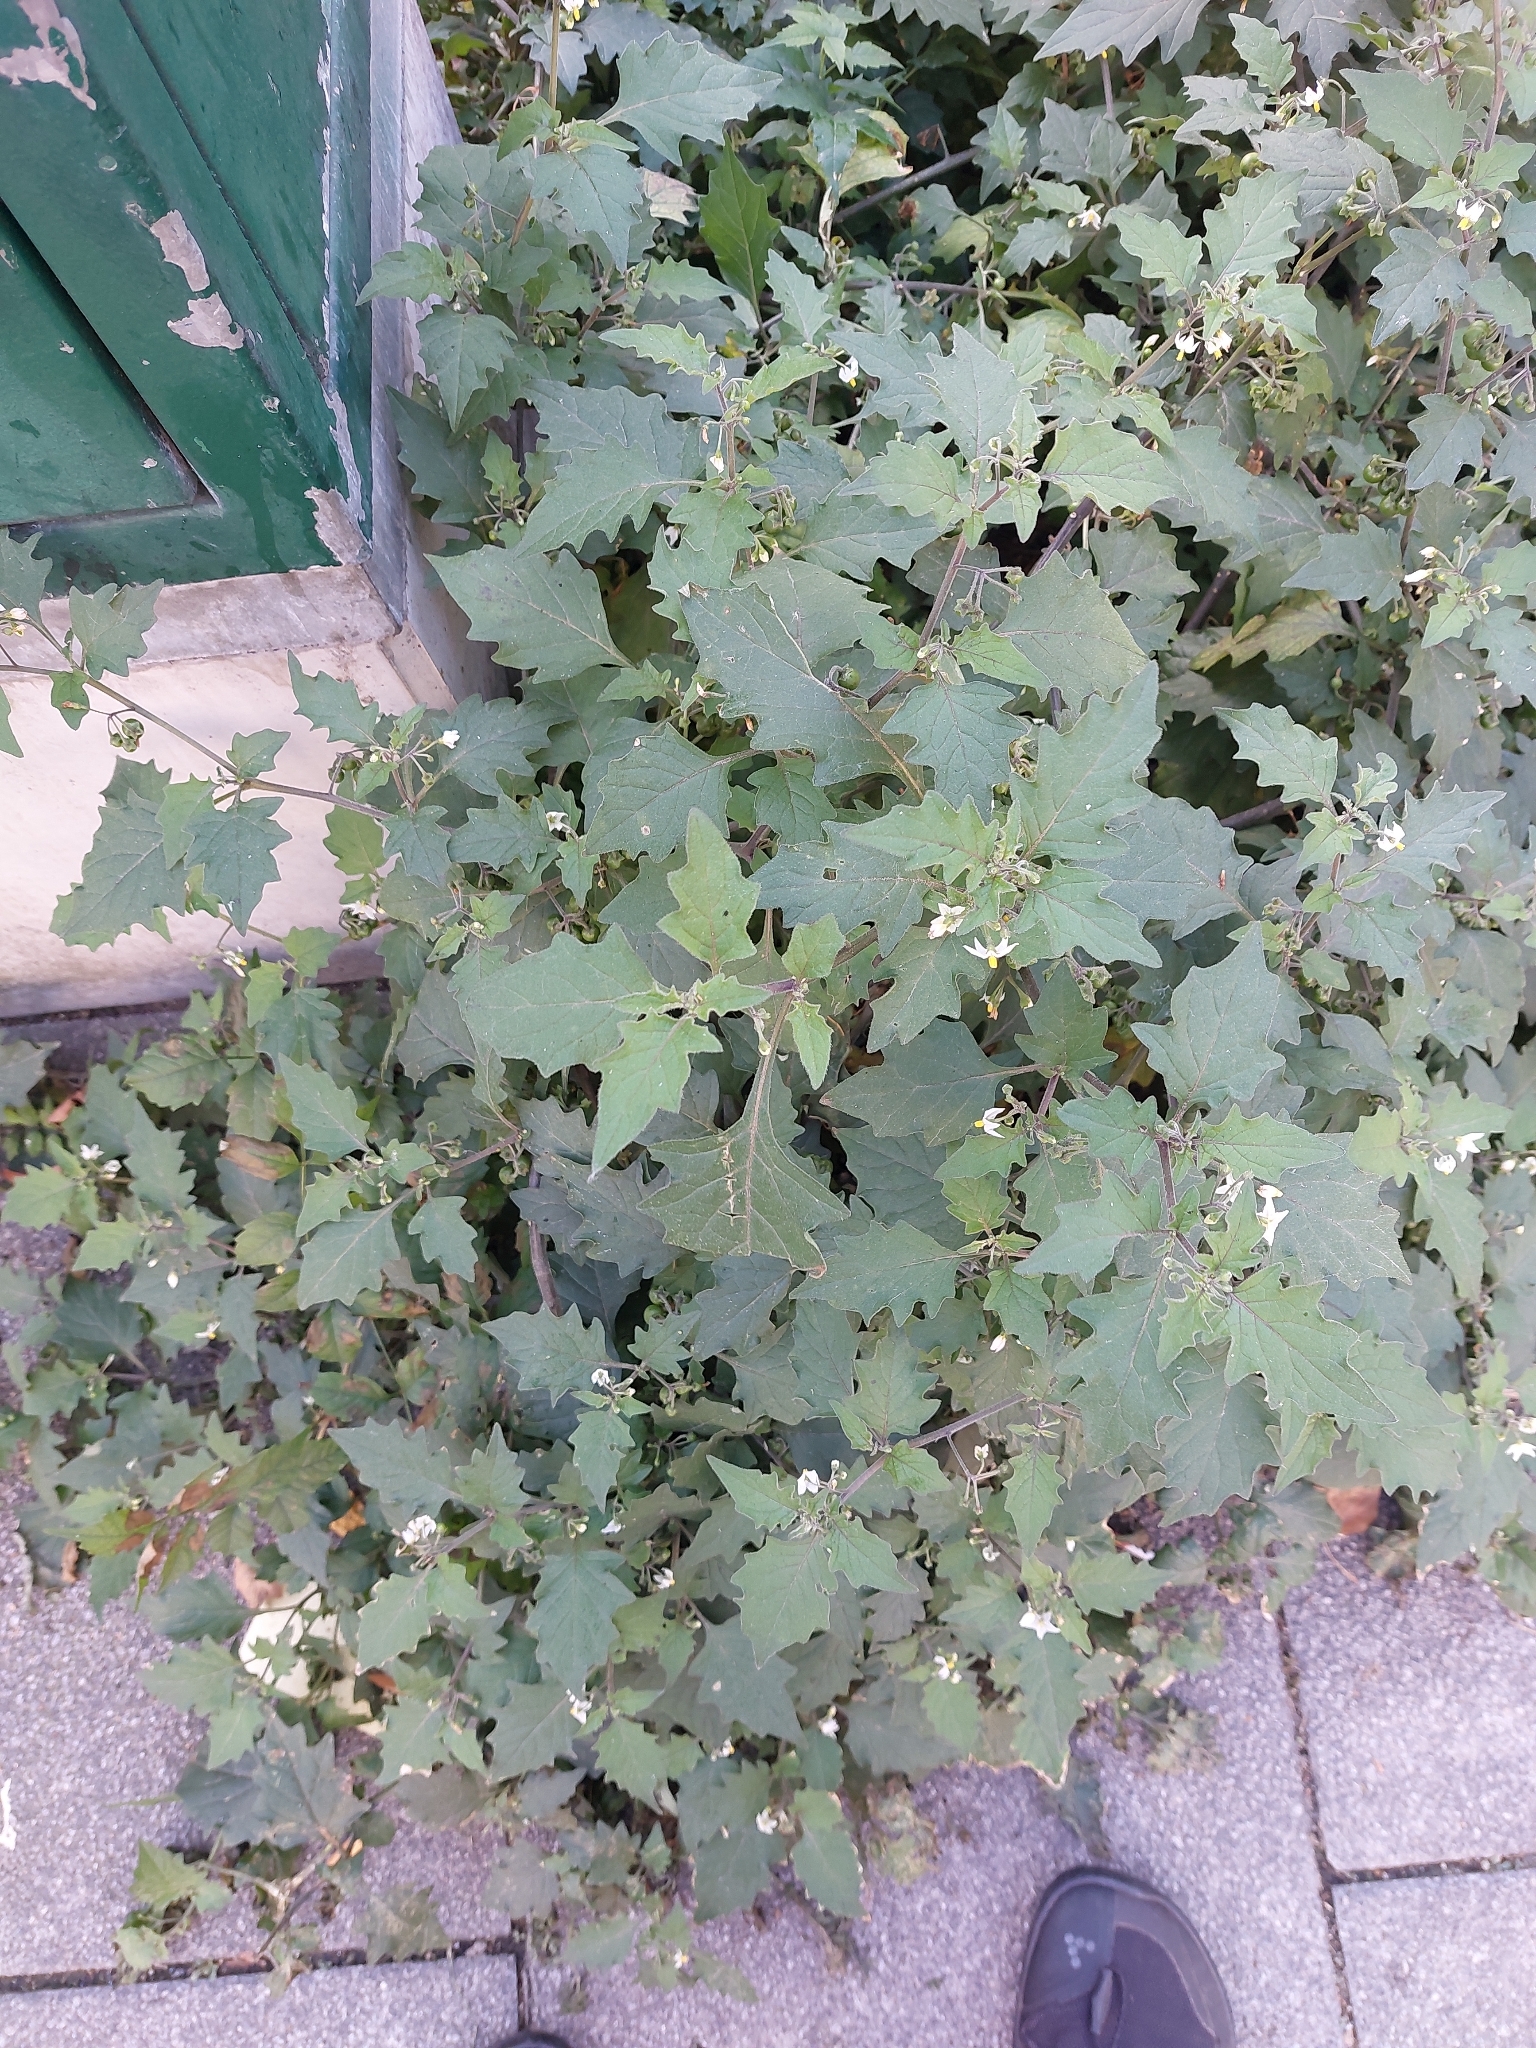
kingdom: Plantae
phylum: Tracheophyta
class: Magnoliopsida
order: Solanales
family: Solanaceae
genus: Solanum
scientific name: Solanum nigrum
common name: Black nightshade
